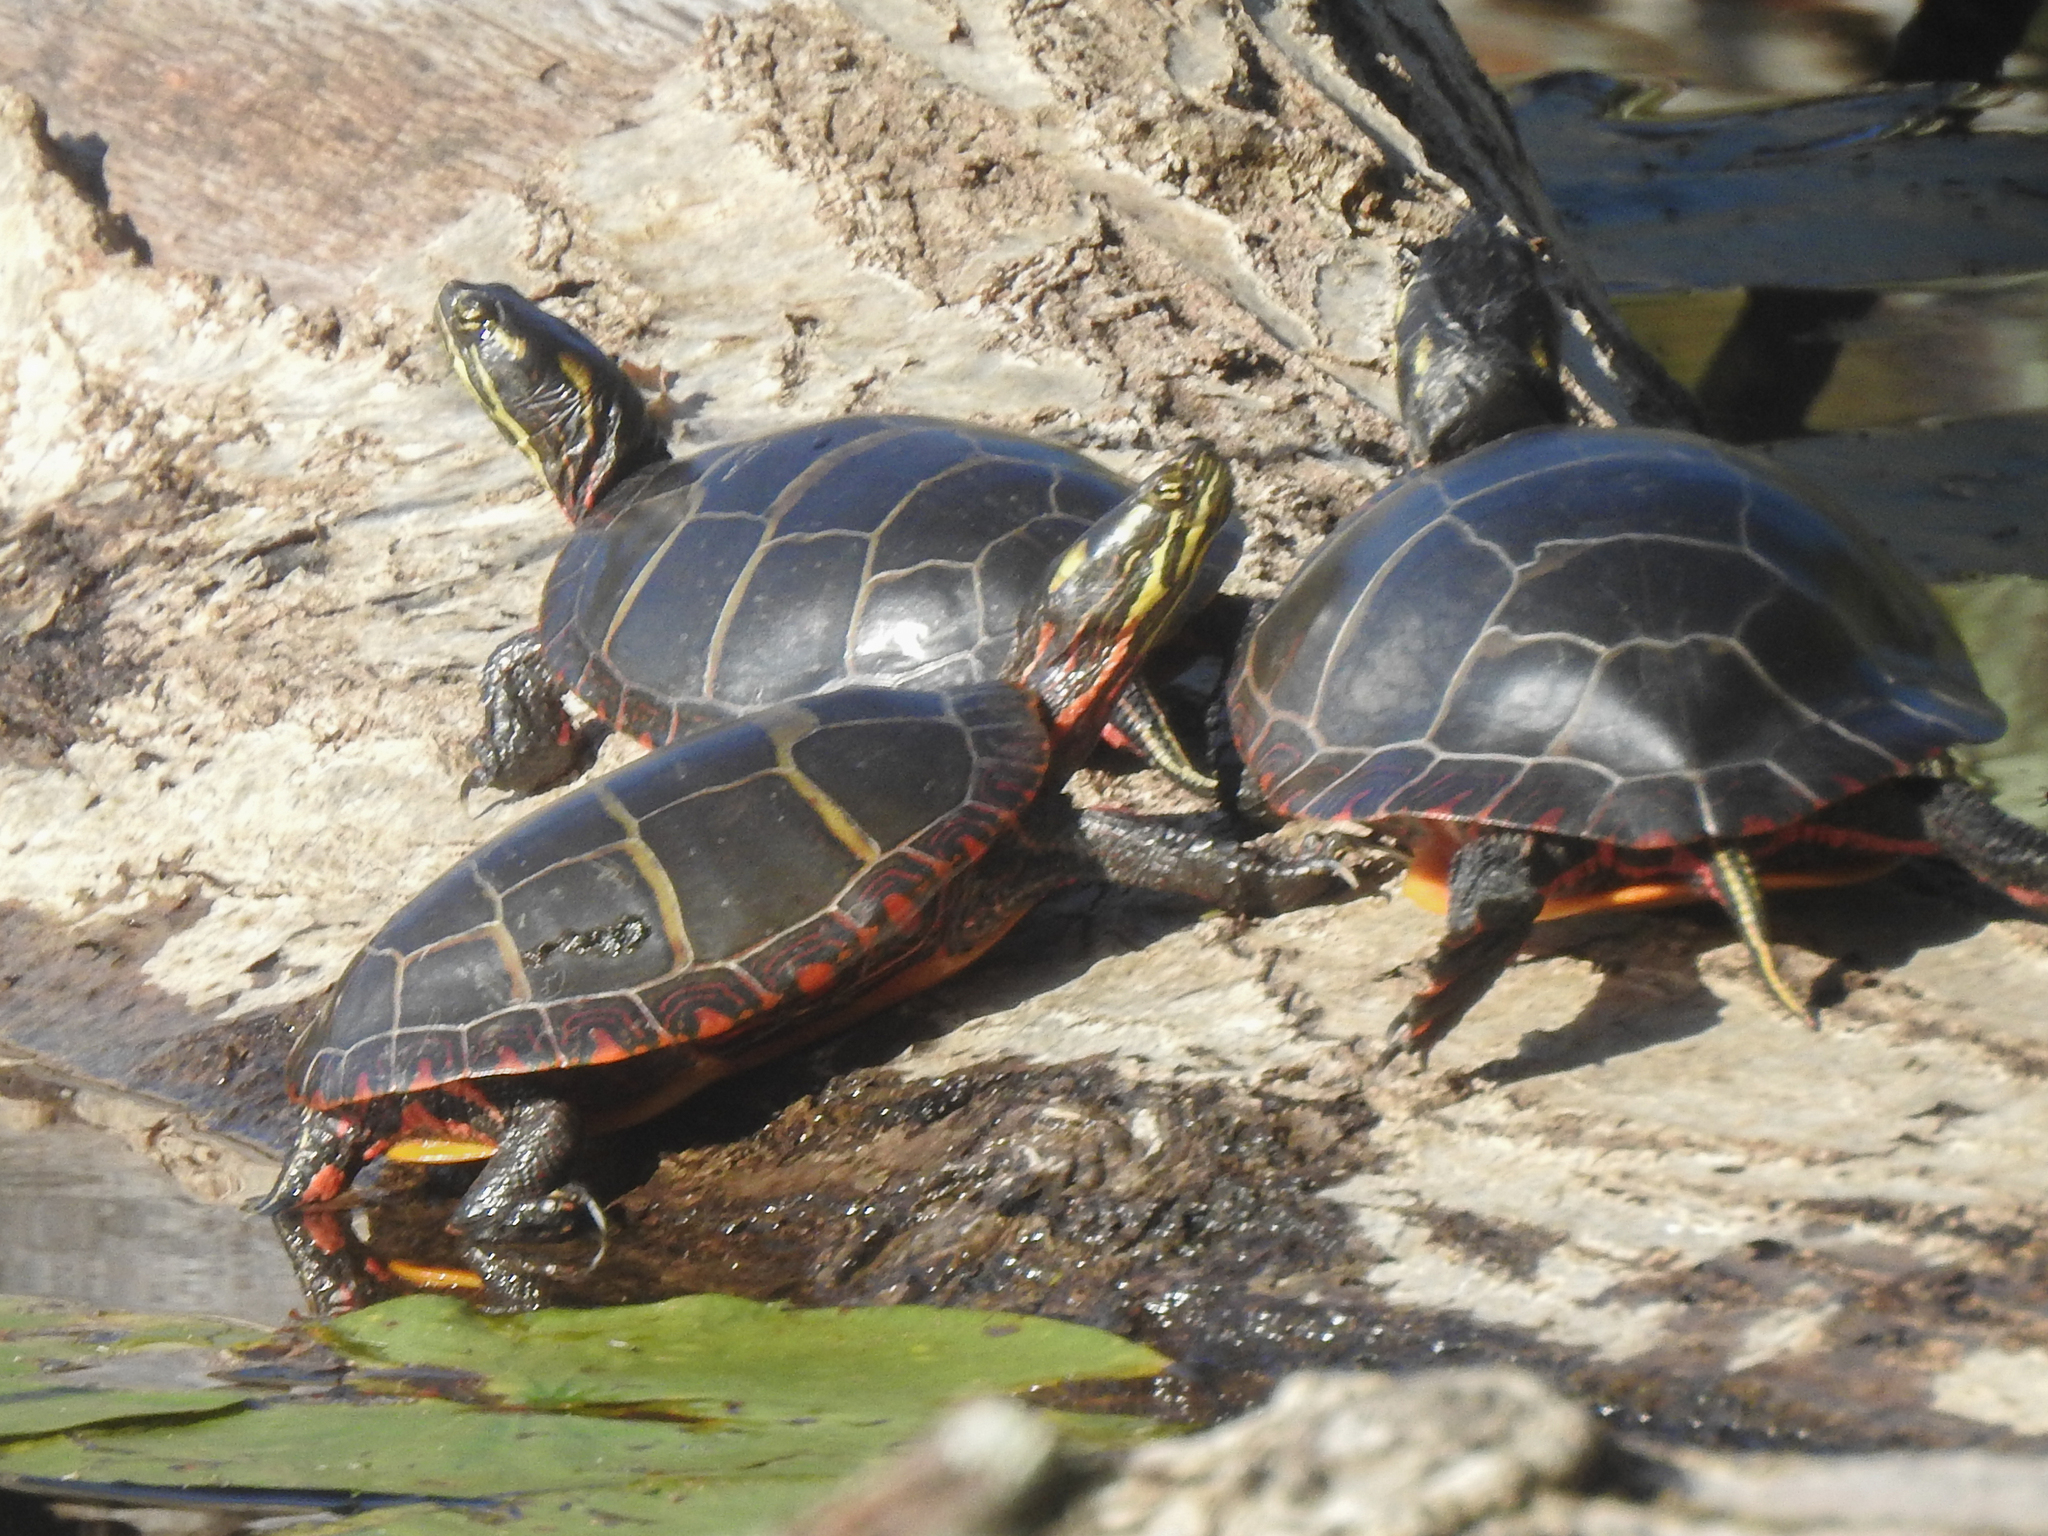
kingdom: Animalia
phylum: Chordata
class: Testudines
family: Emydidae
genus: Chrysemys
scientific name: Chrysemys picta
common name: Painted turtle
